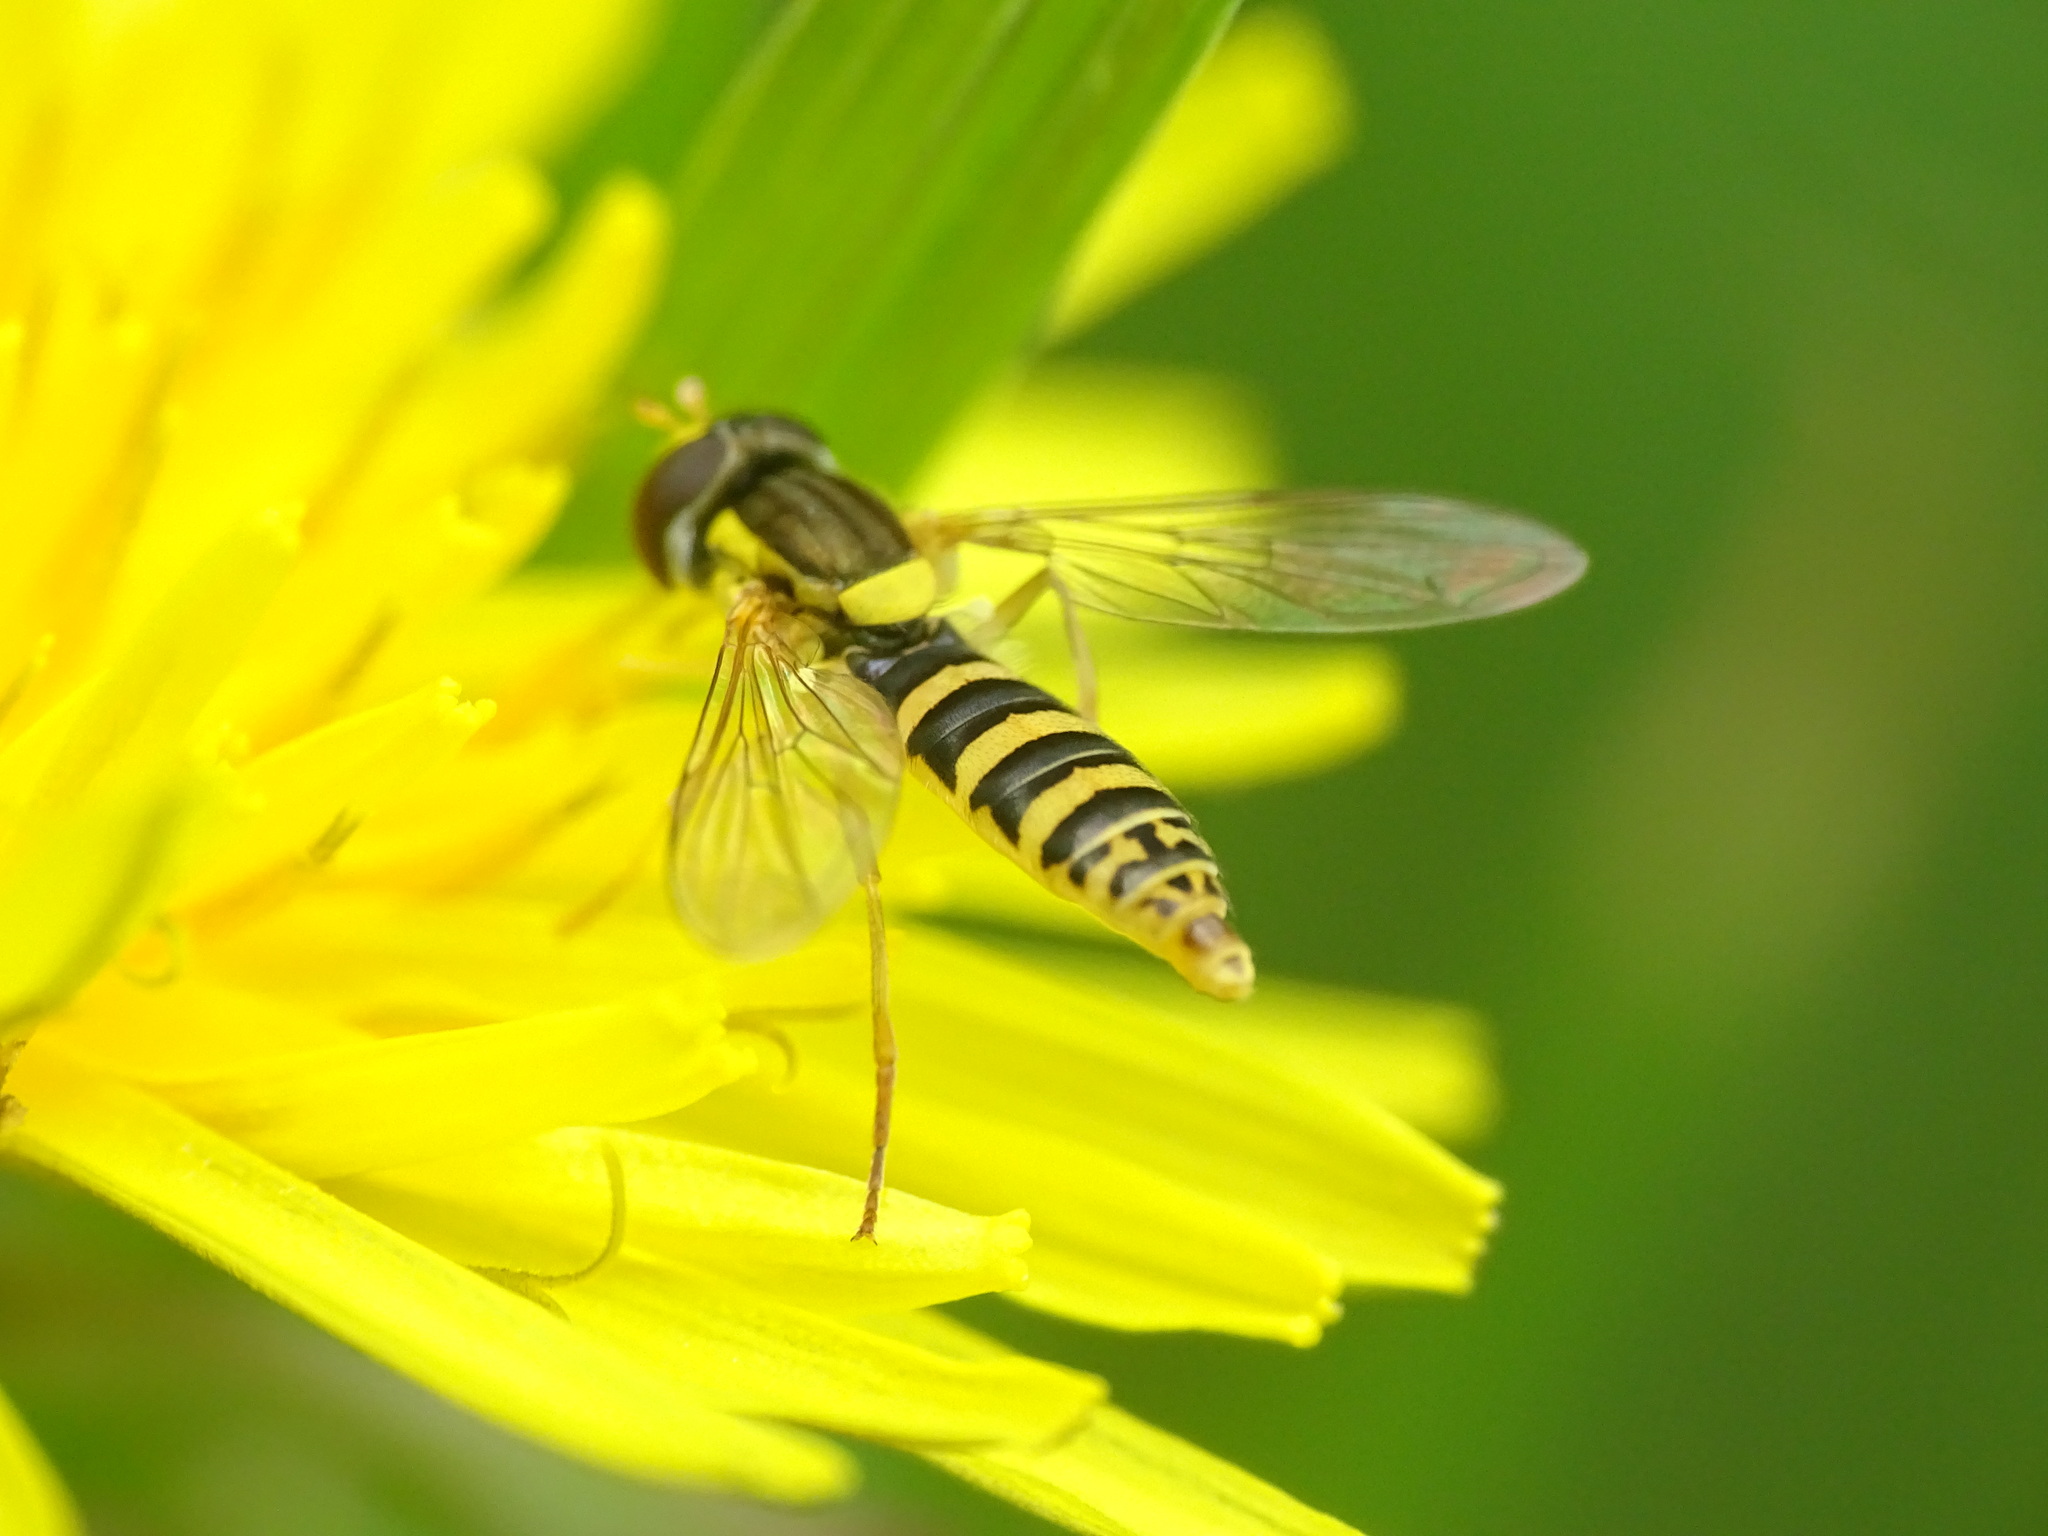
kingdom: Animalia
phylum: Arthropoda
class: Insecta
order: Diptera
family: Syrphidae
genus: Sphaerophoria
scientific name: Sphaerophoria
